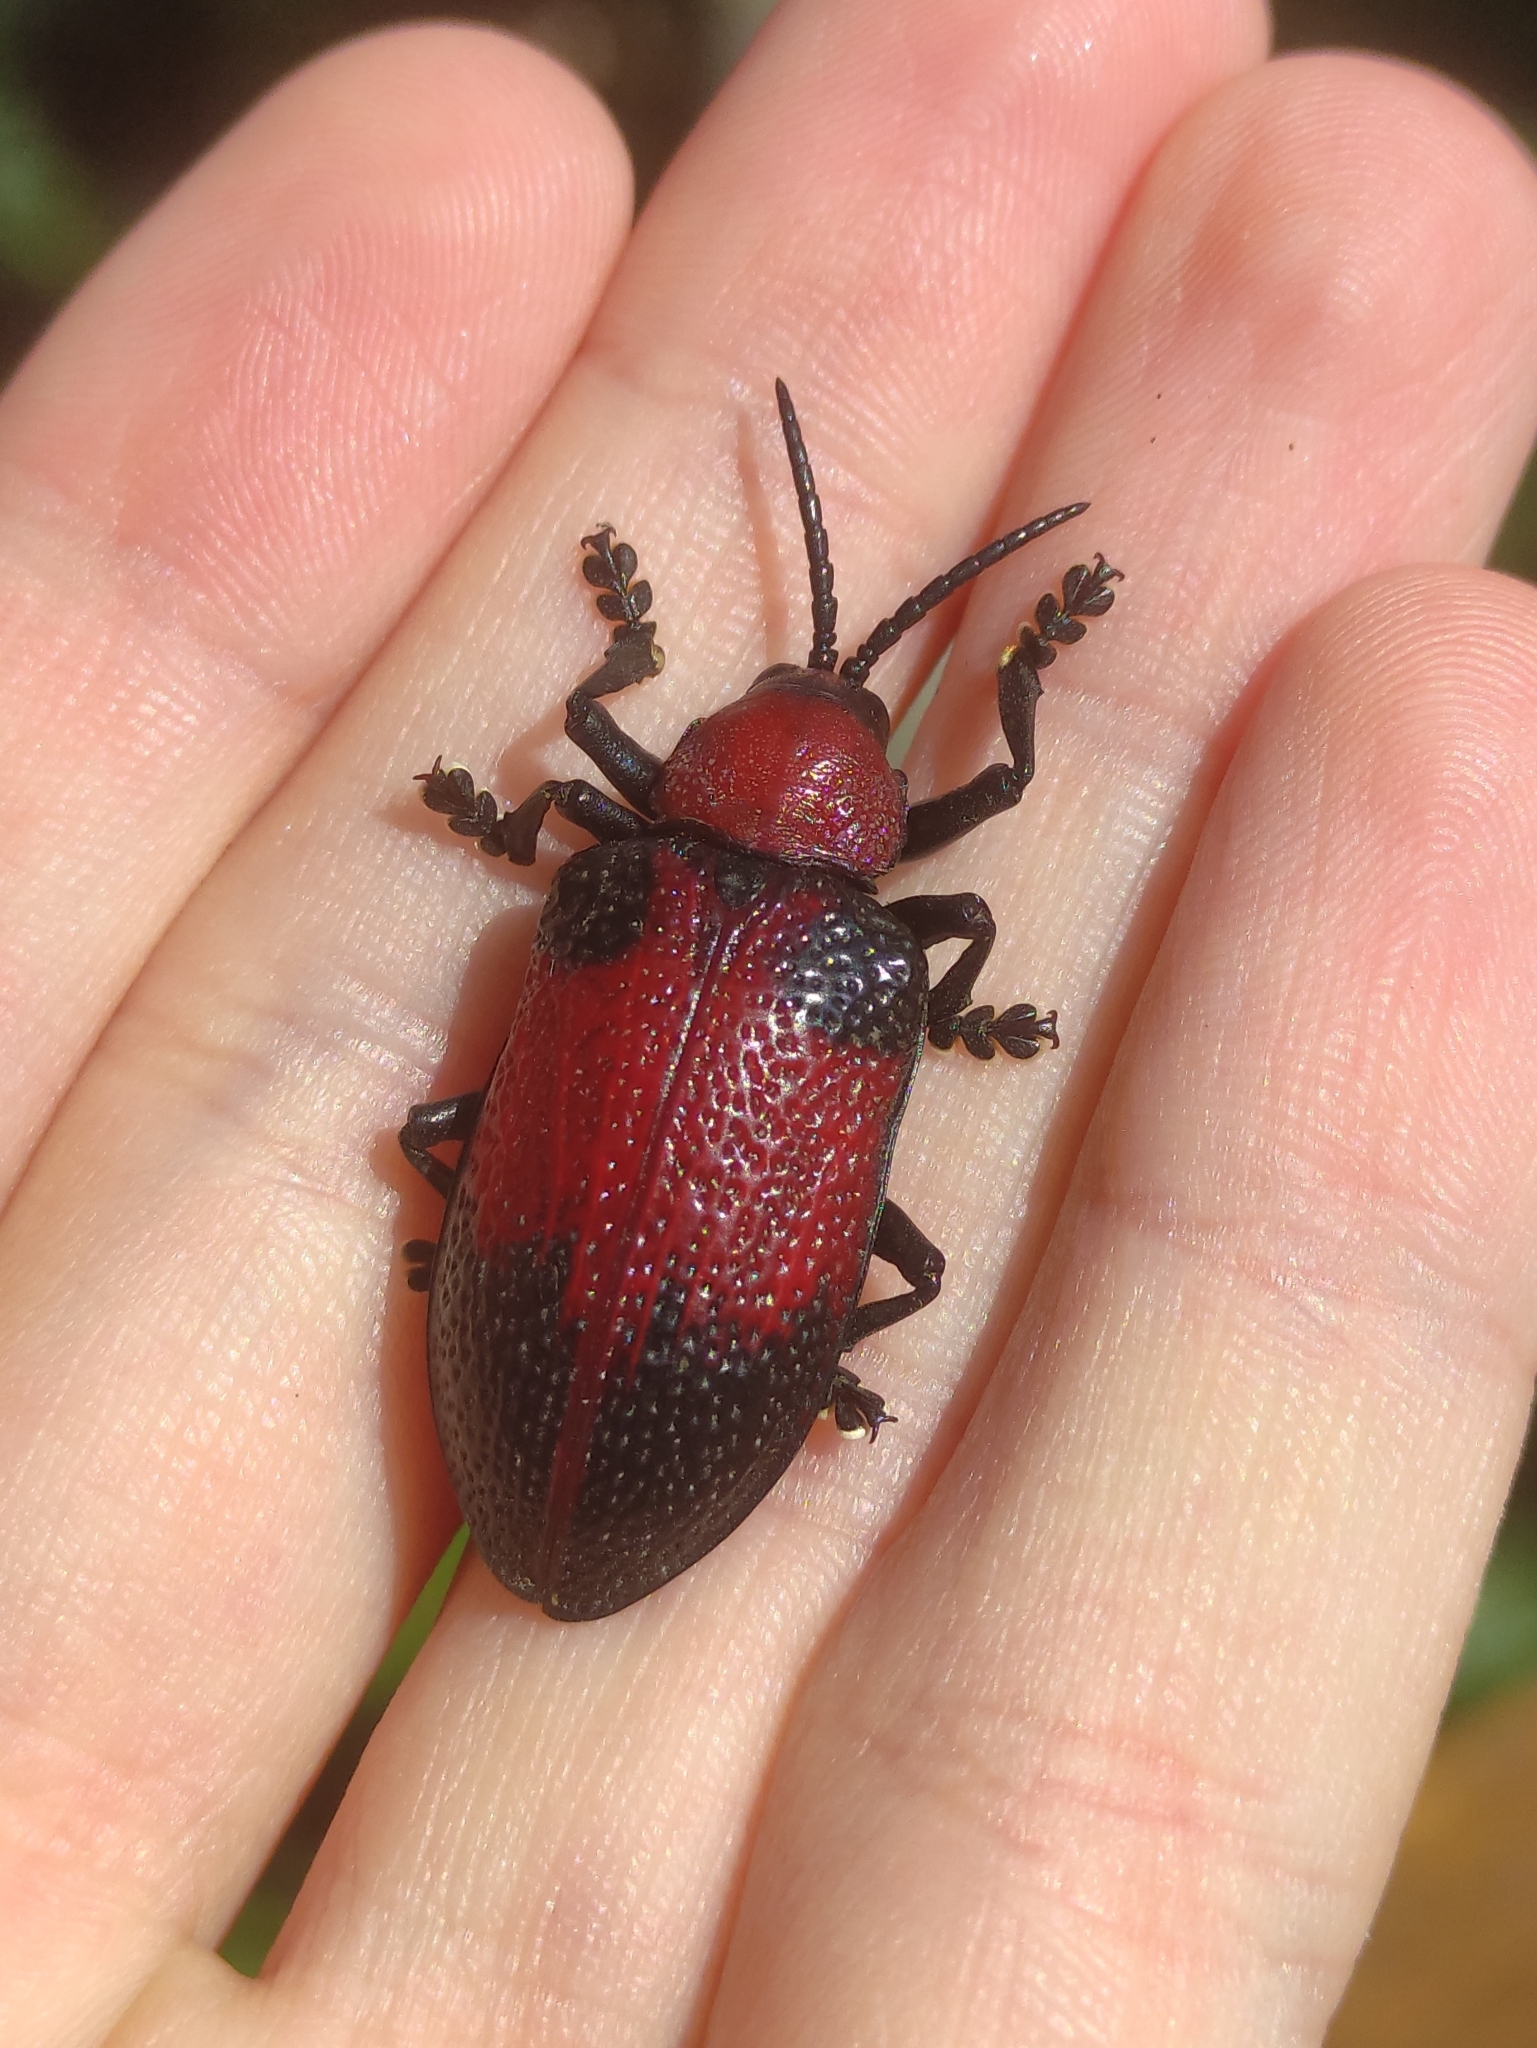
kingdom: Animalia
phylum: Arthropoda
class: Insecta
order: Coleoptera
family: Chrysomelidae
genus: Coraliomela
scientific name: Coraliomela aeneoplagiata
